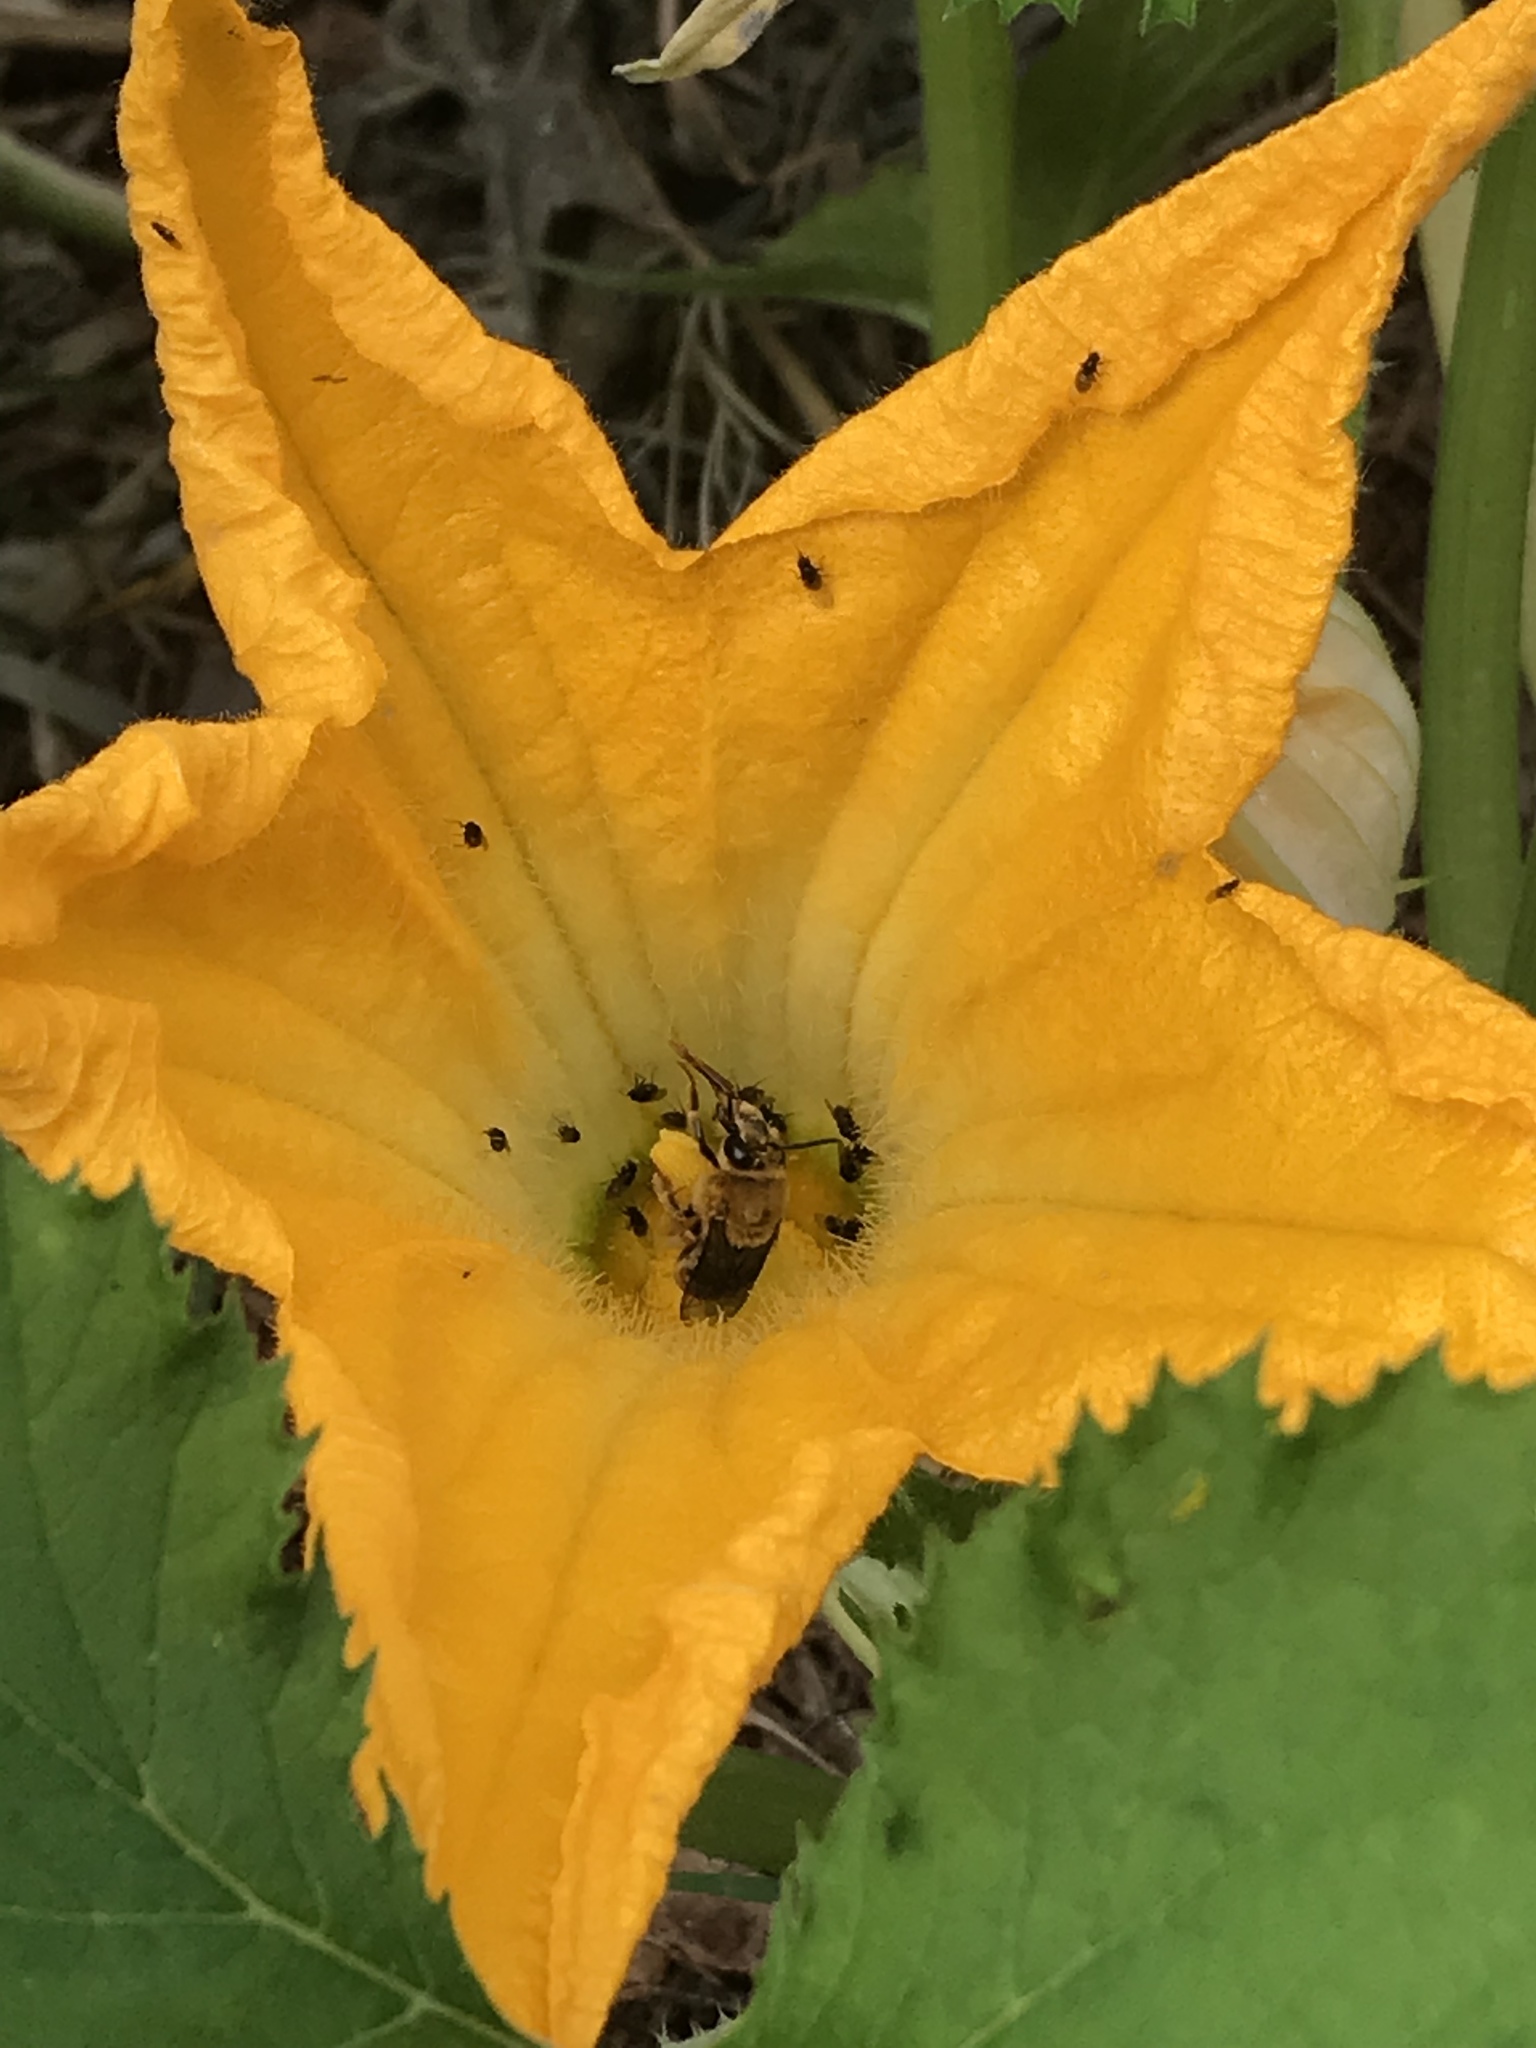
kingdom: Animalia
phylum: Arthropoda
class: Insecta
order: Hymenoptera
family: Apidae
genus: Peponapis
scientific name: Peponapis pruinosa
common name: Pruinose squash bee
